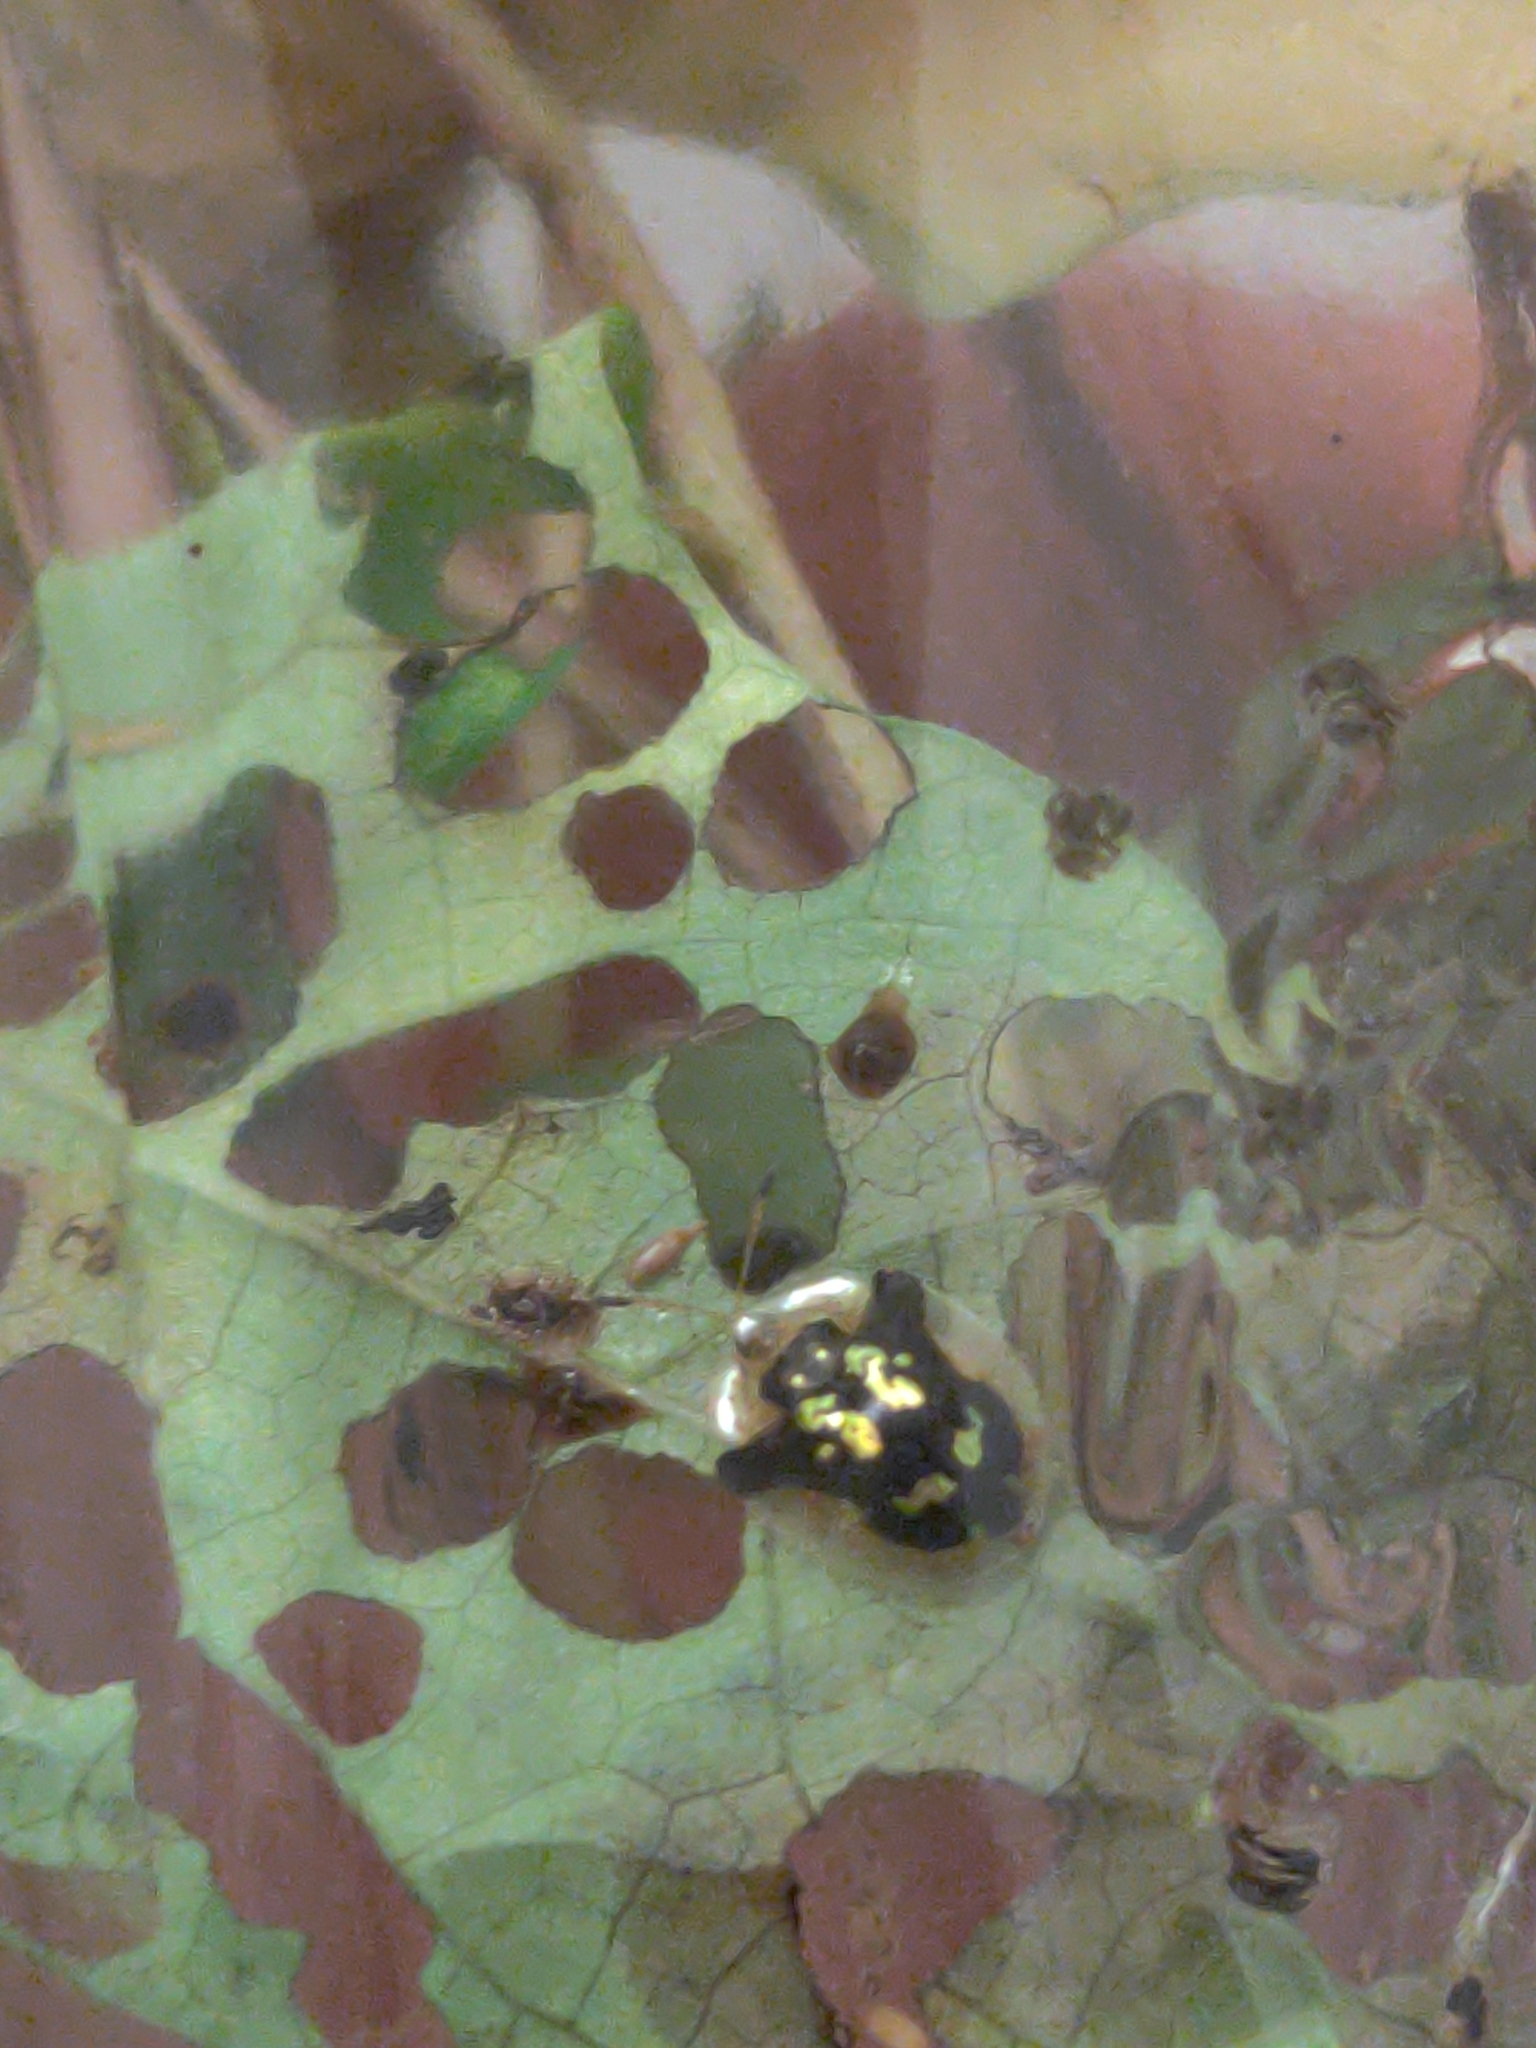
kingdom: Animalia
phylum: Arthropoda
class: Insecta
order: Coleoptera
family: Chrysomelidae
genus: Deloyala
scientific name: Deloyala guttata
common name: Mottled tortoise beetle
